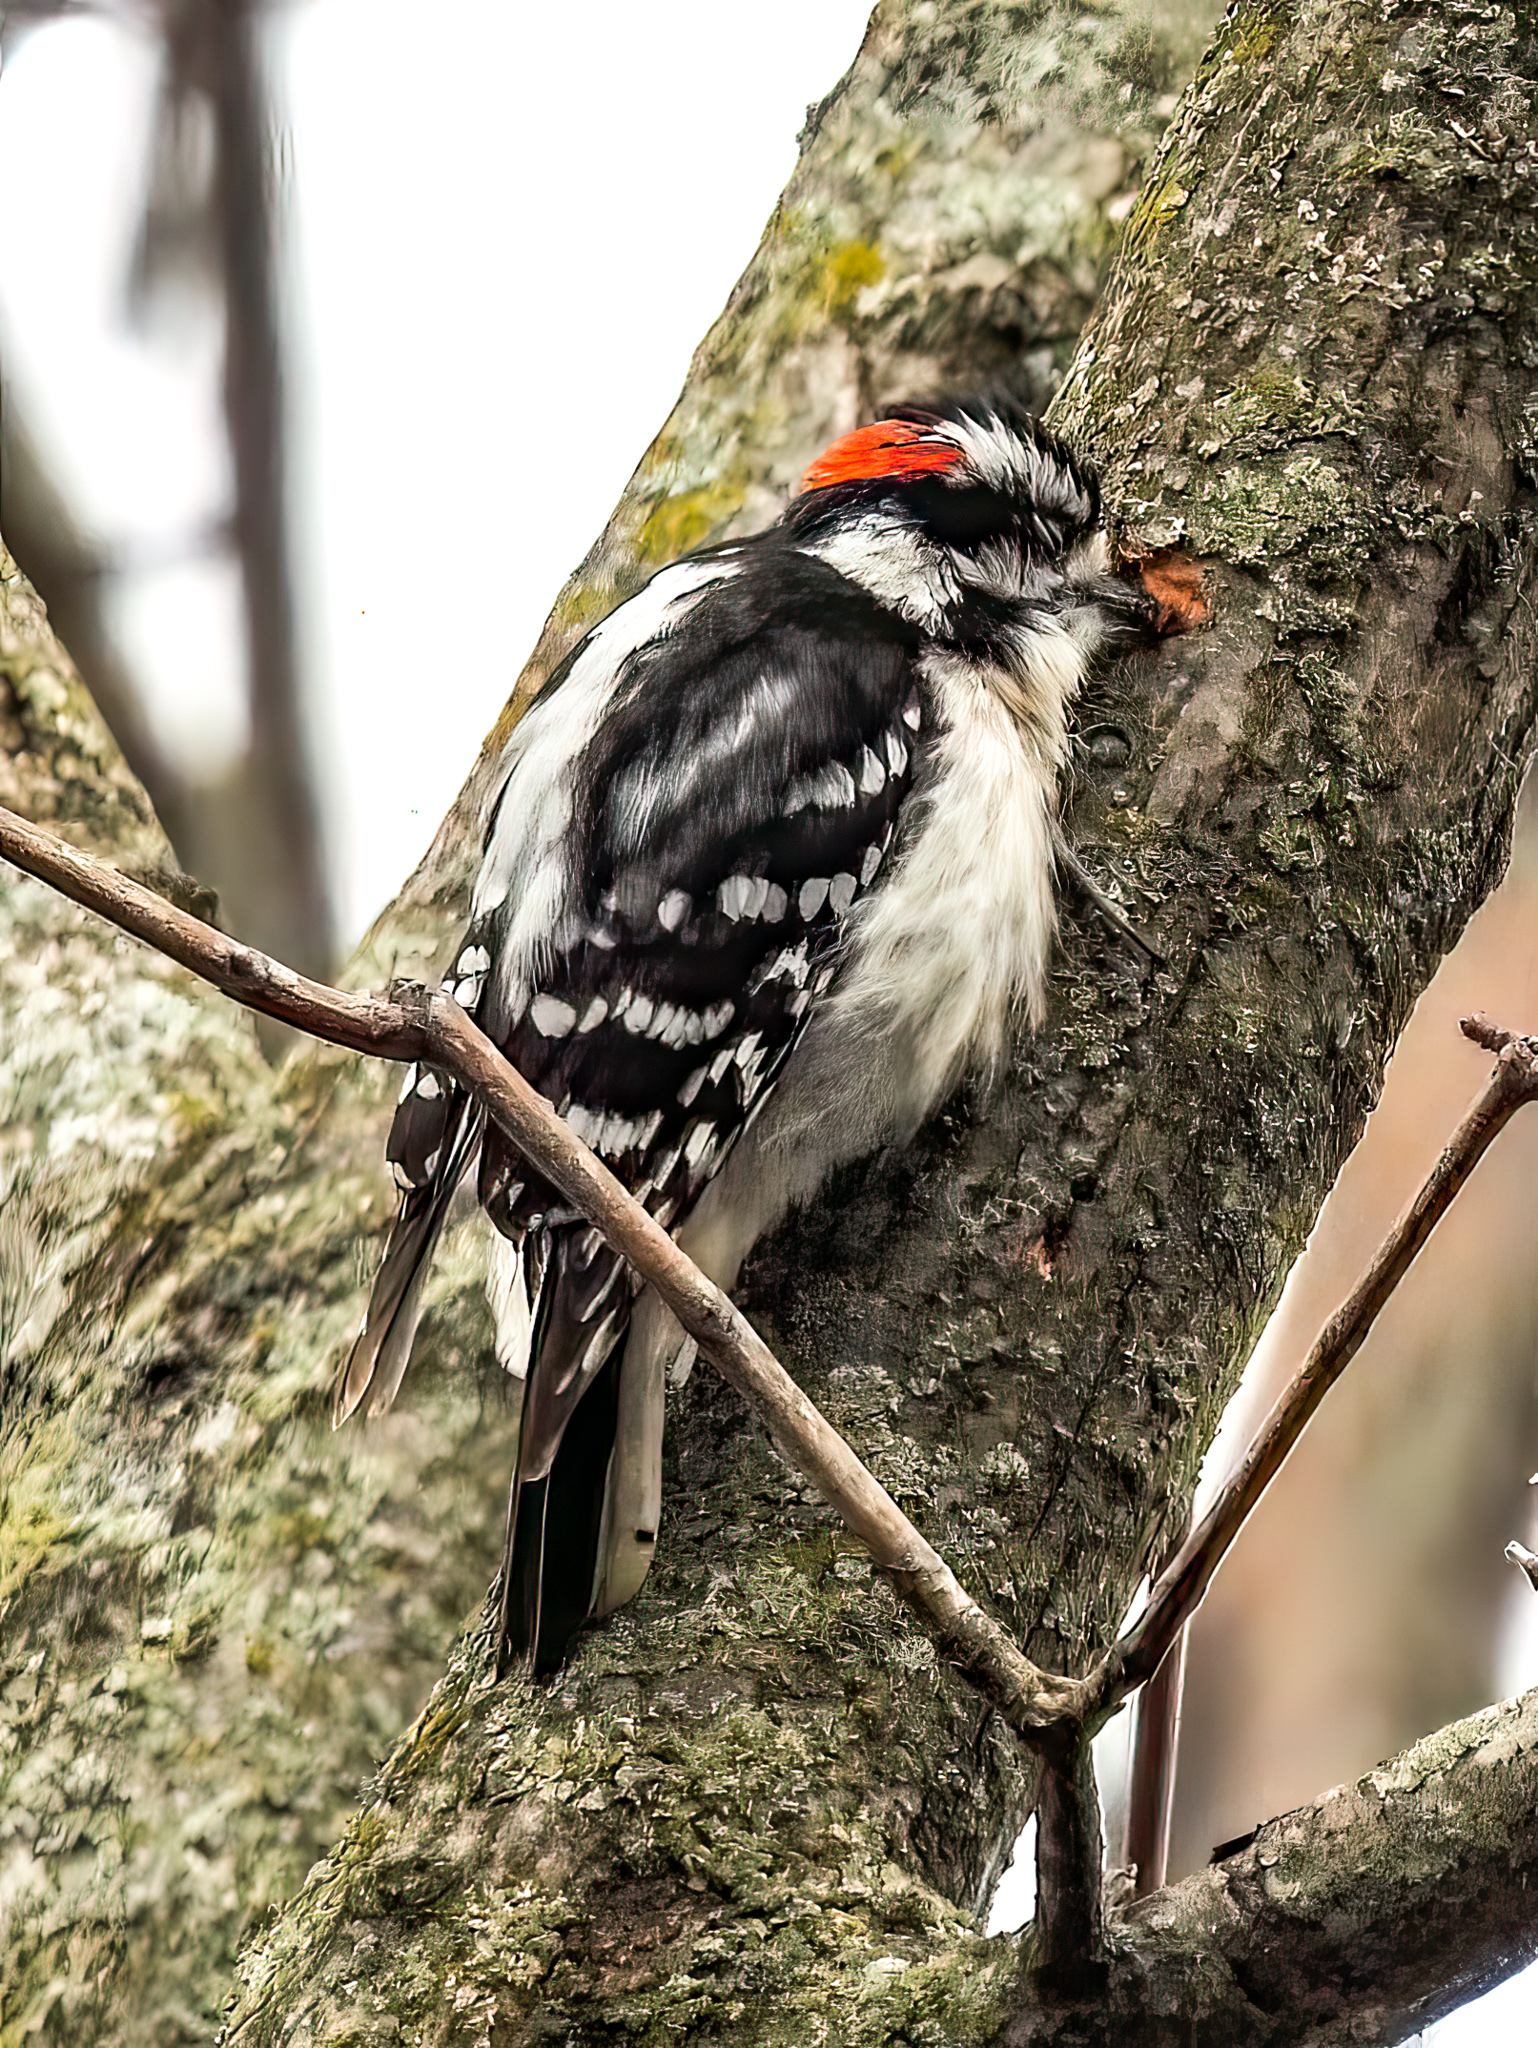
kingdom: Animalia
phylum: Chordata
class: Aves
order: Piciformes
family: Picidae
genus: Dryobates
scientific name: Dryobates pubescens
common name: Downy woodpecker
